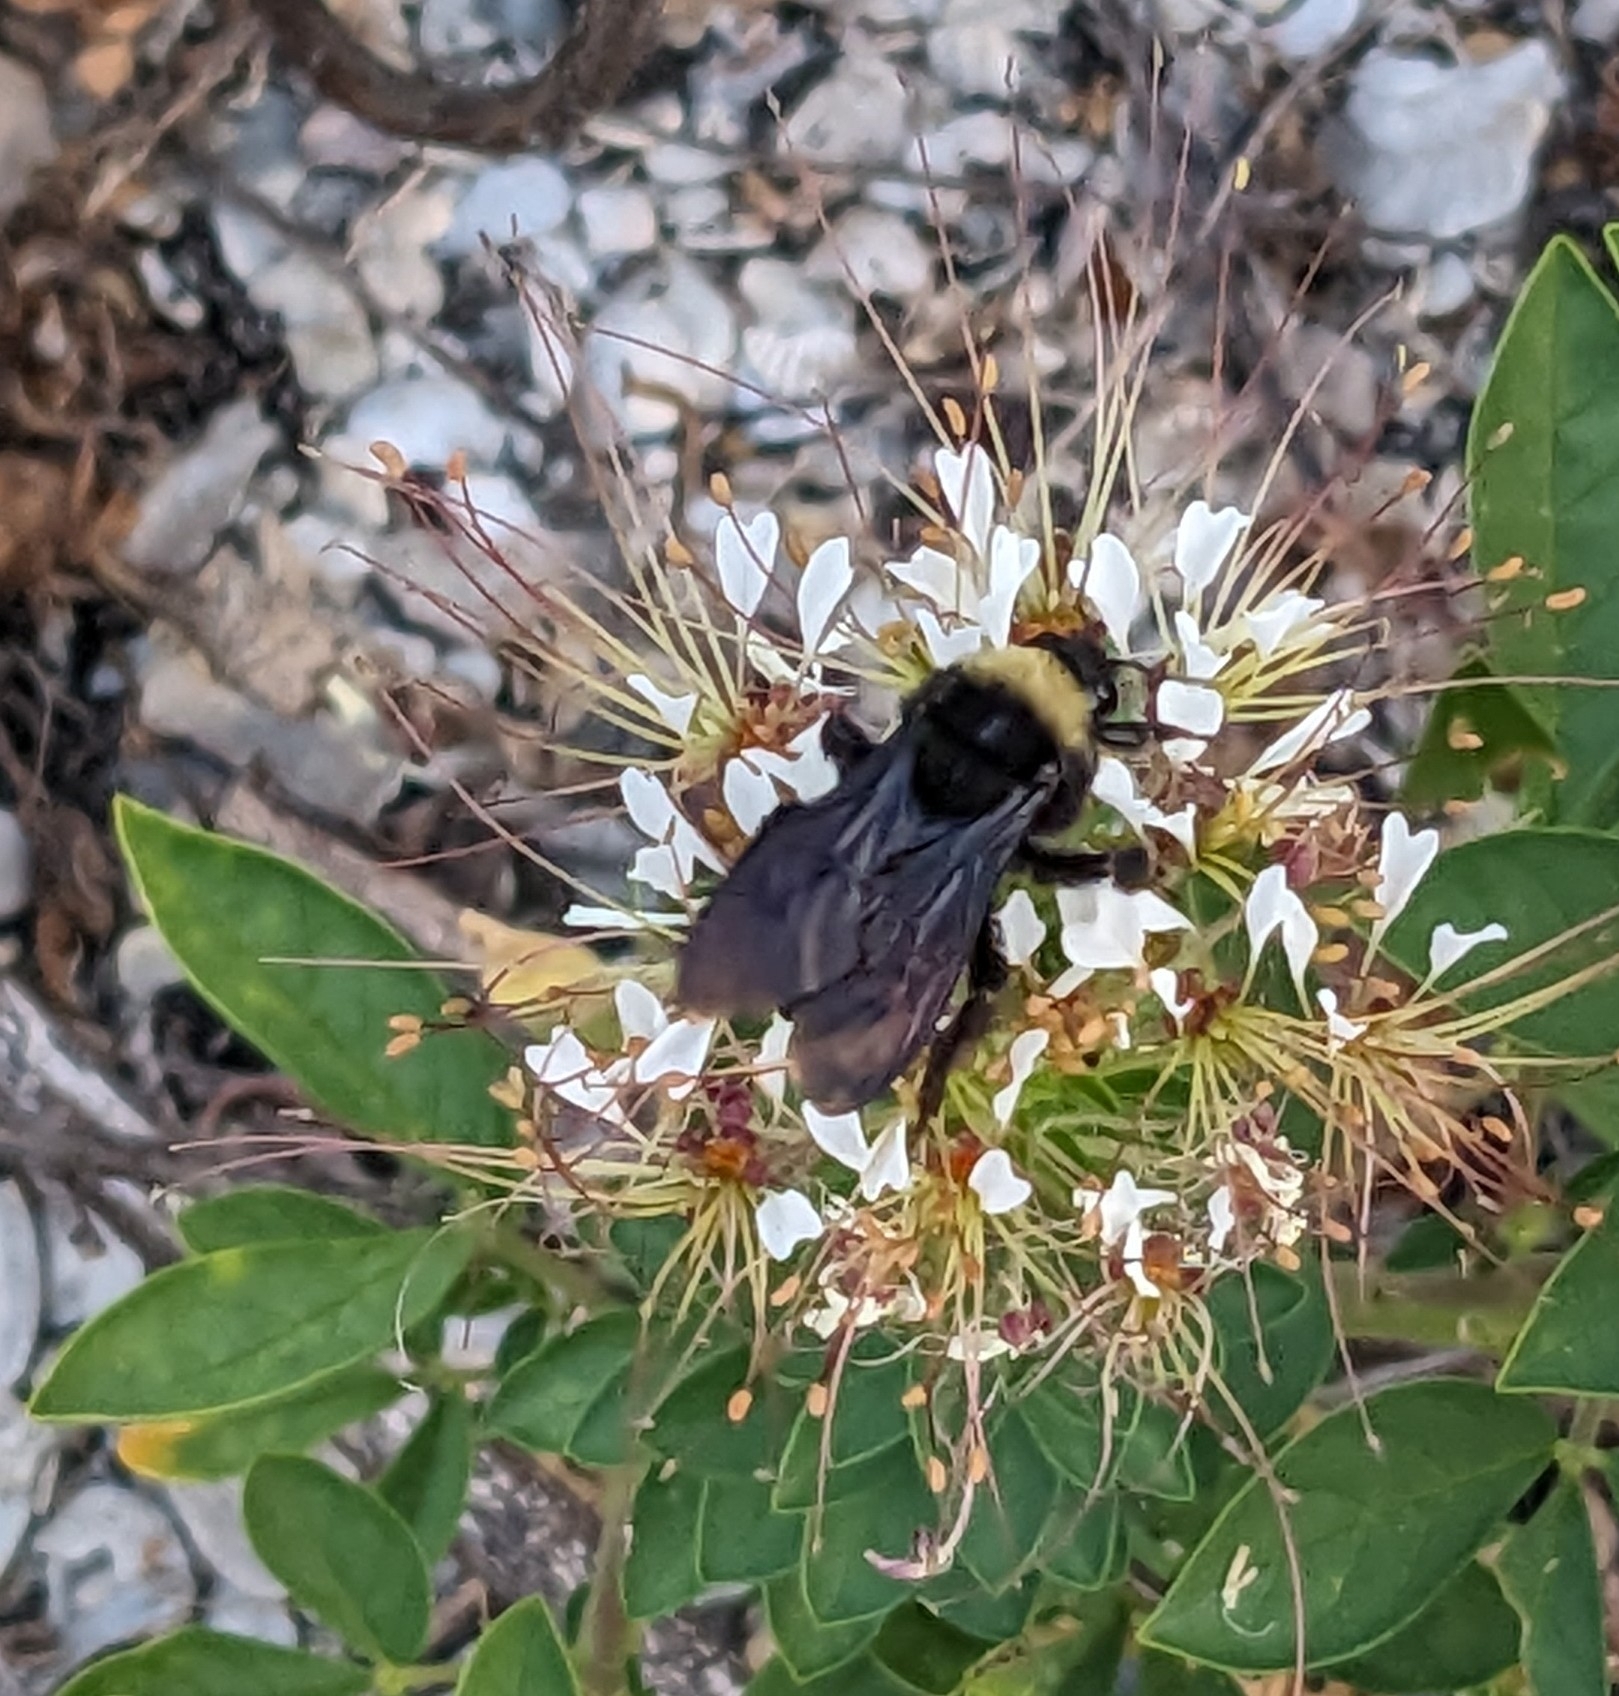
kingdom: Animalia
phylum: Arthropoda
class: Insecta
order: Hymenoptera
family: Apidae
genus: Bombus
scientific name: Bombus pensylvanicus
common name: Bumble bee
